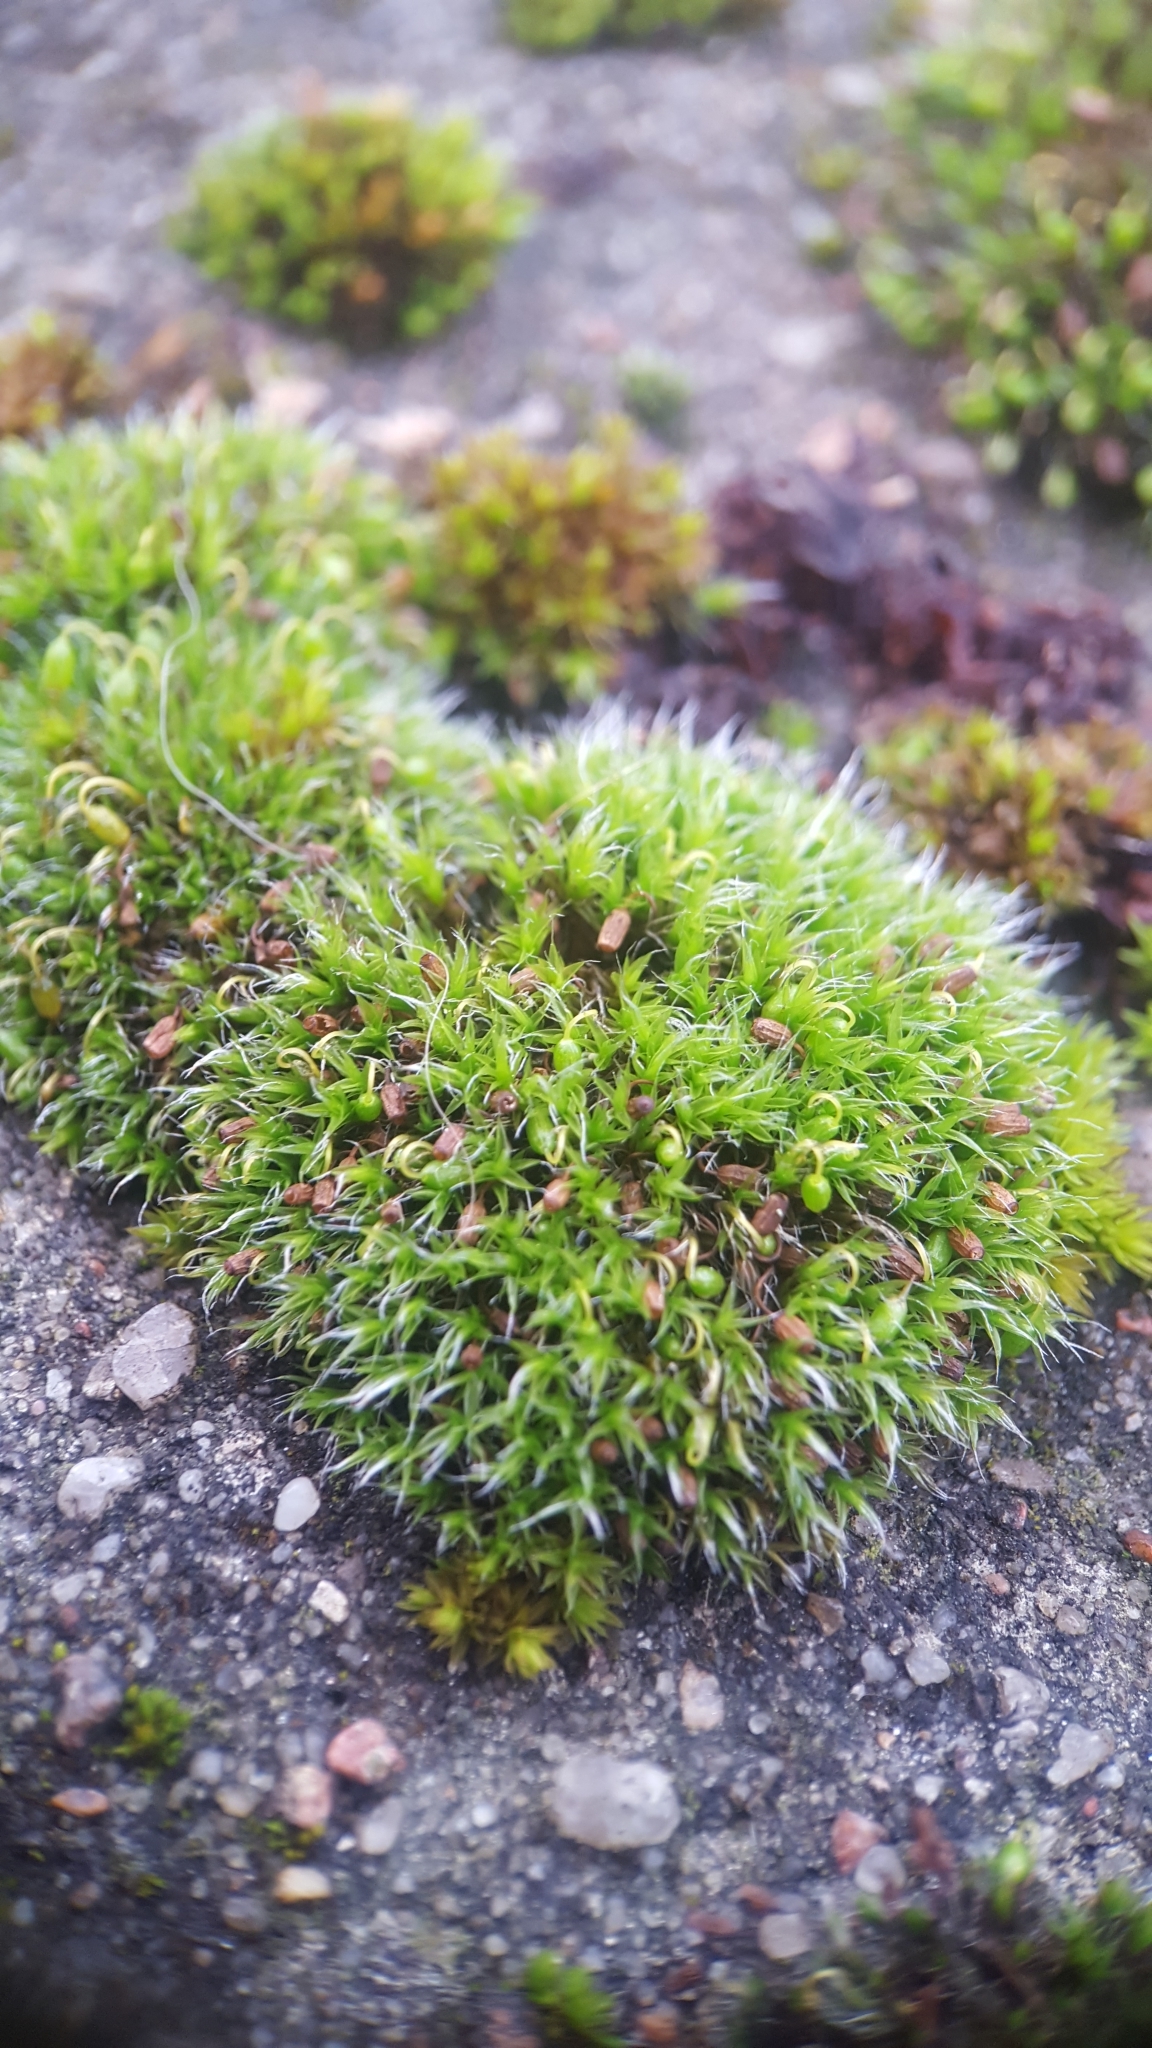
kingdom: Plantae
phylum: Bryophyta
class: Bryopsida
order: Grimmiales
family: Grimmiaceae
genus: Grimmia
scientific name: Grimmia pulvinata
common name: Grey-cushioned grimmia
